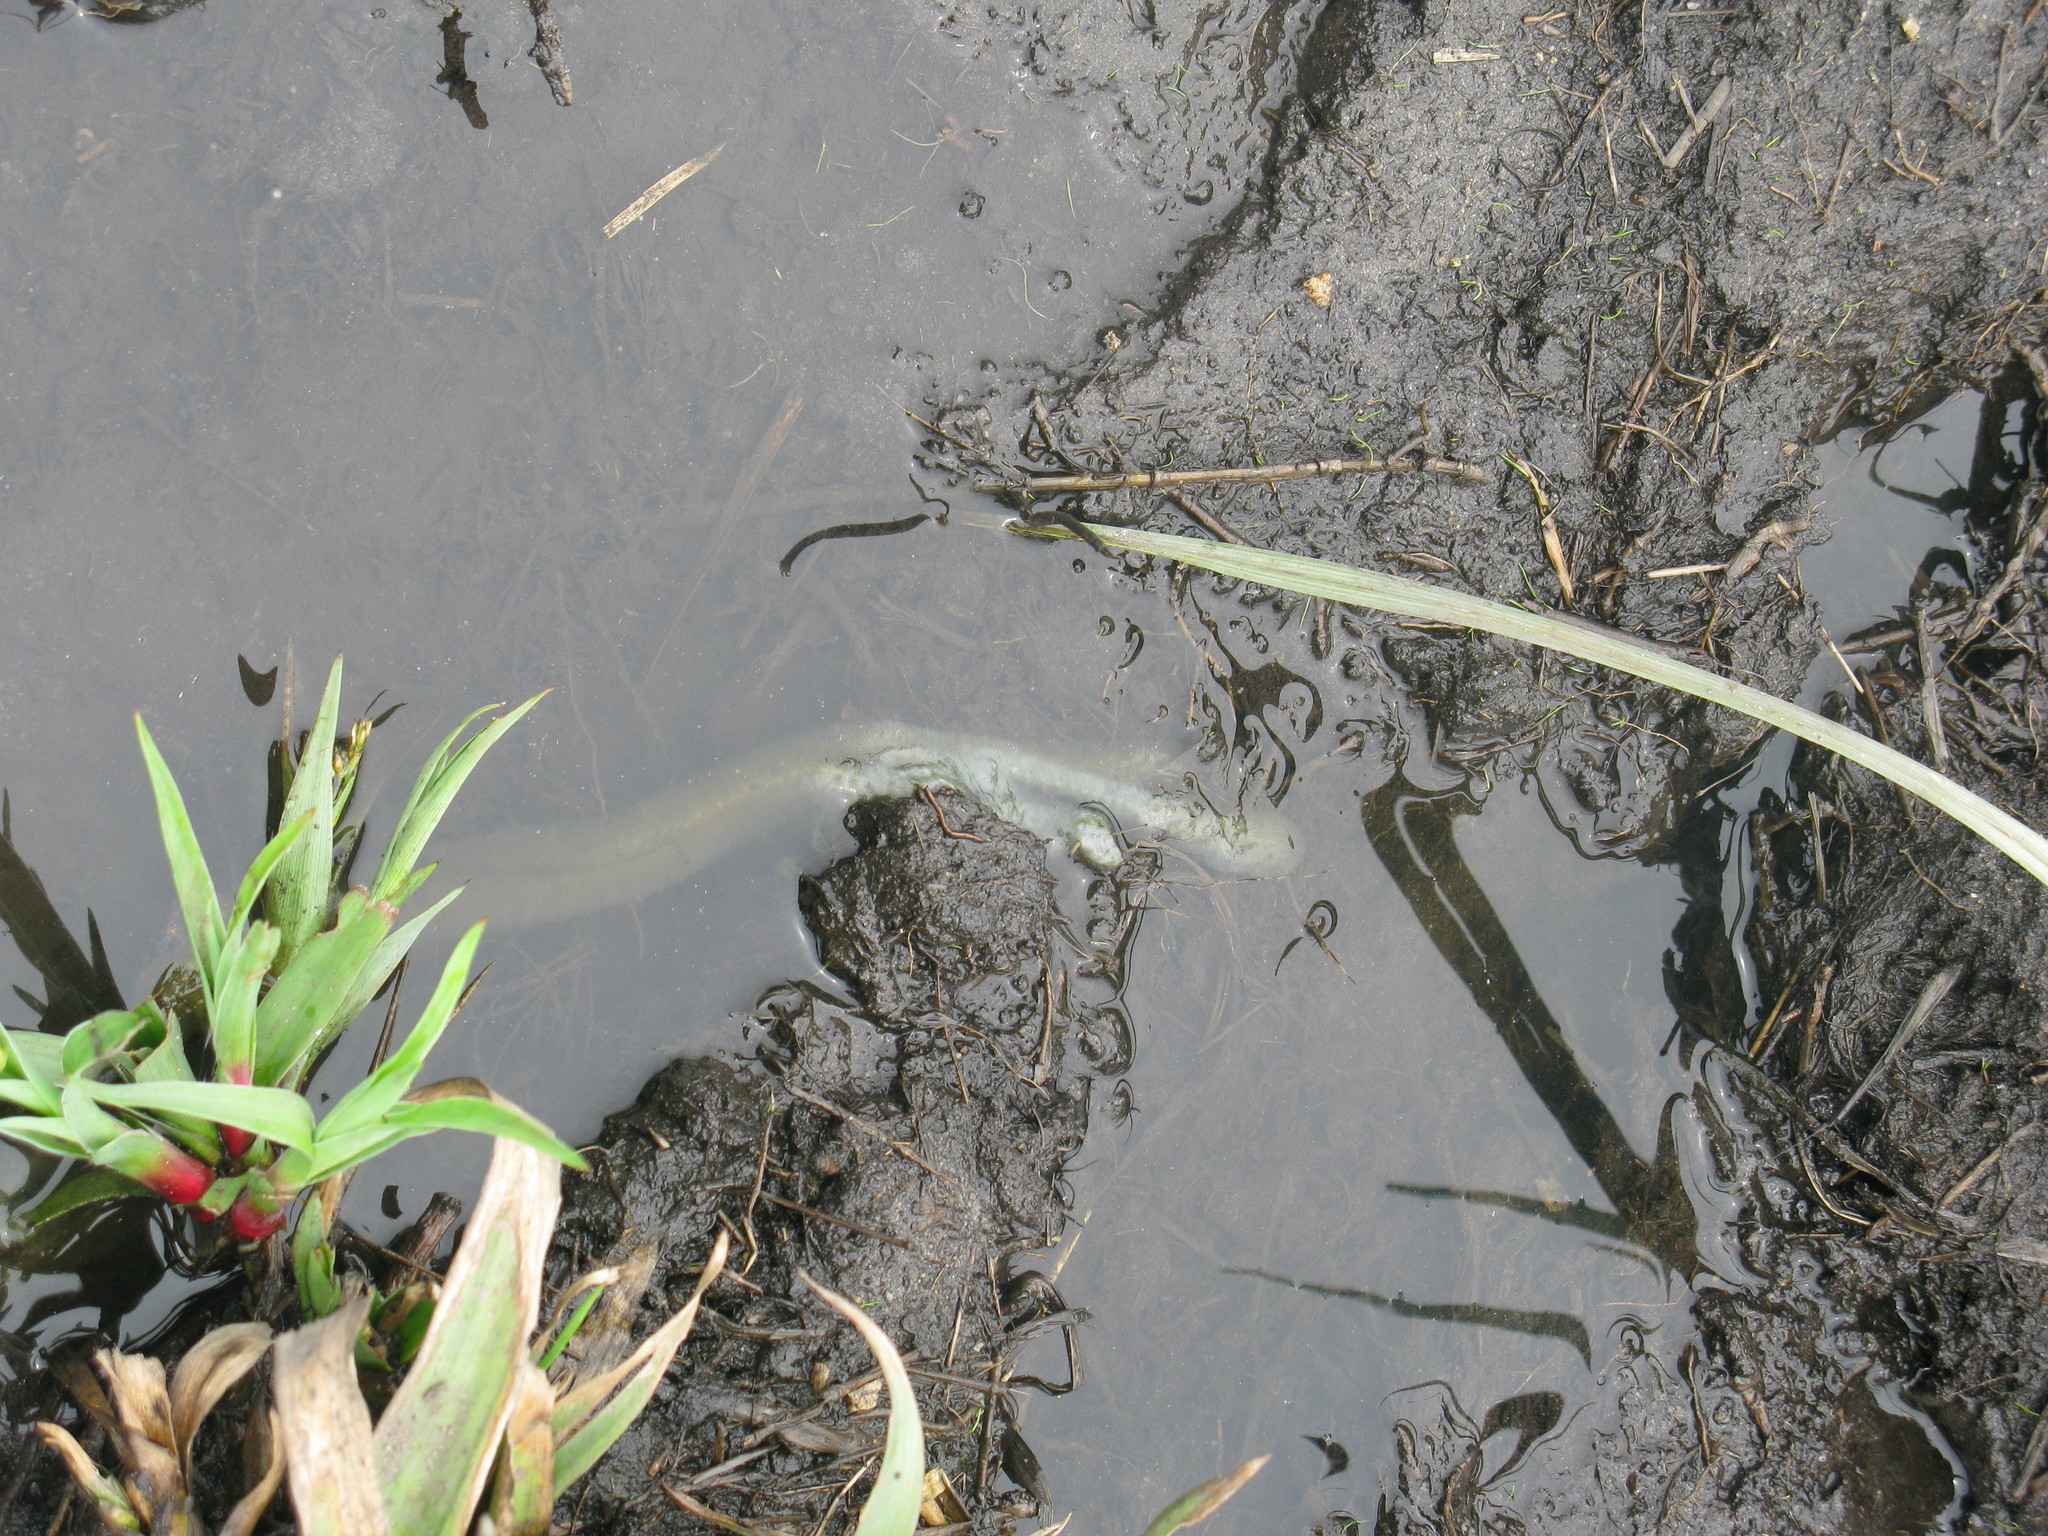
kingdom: Plantae
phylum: Tracheophyta
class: Liliopsida
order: Poales
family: Juncaceae
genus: Juncus
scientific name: Juncus lomatophyllus
